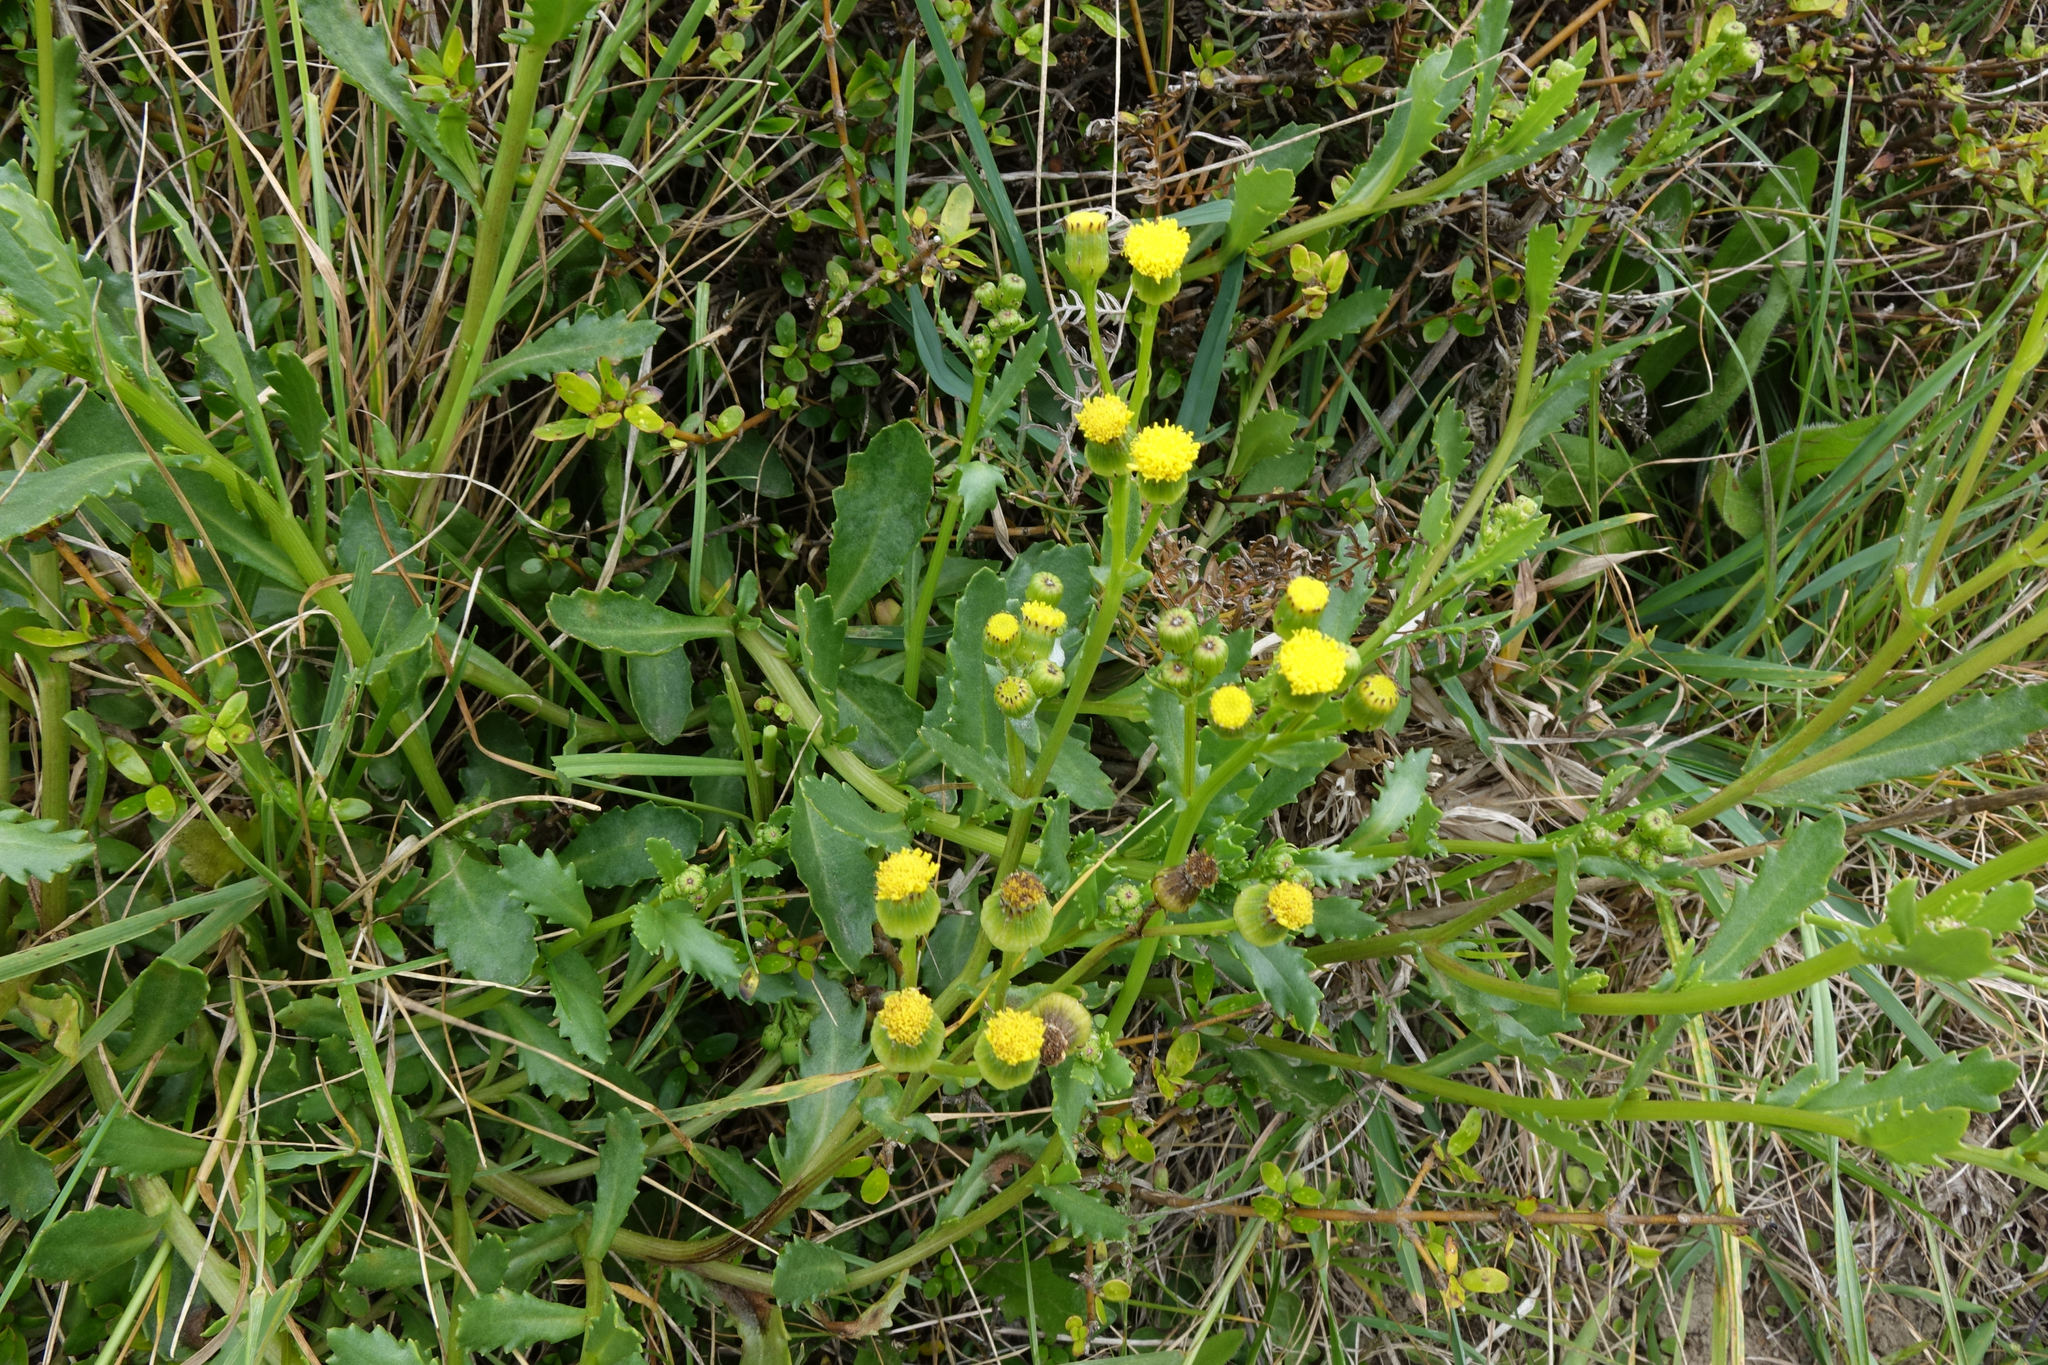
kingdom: Plantae
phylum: Tracheophyta
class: Magnoliopsida
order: Asterales
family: Asteraceae
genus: Senecio
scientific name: Senecio matatini
